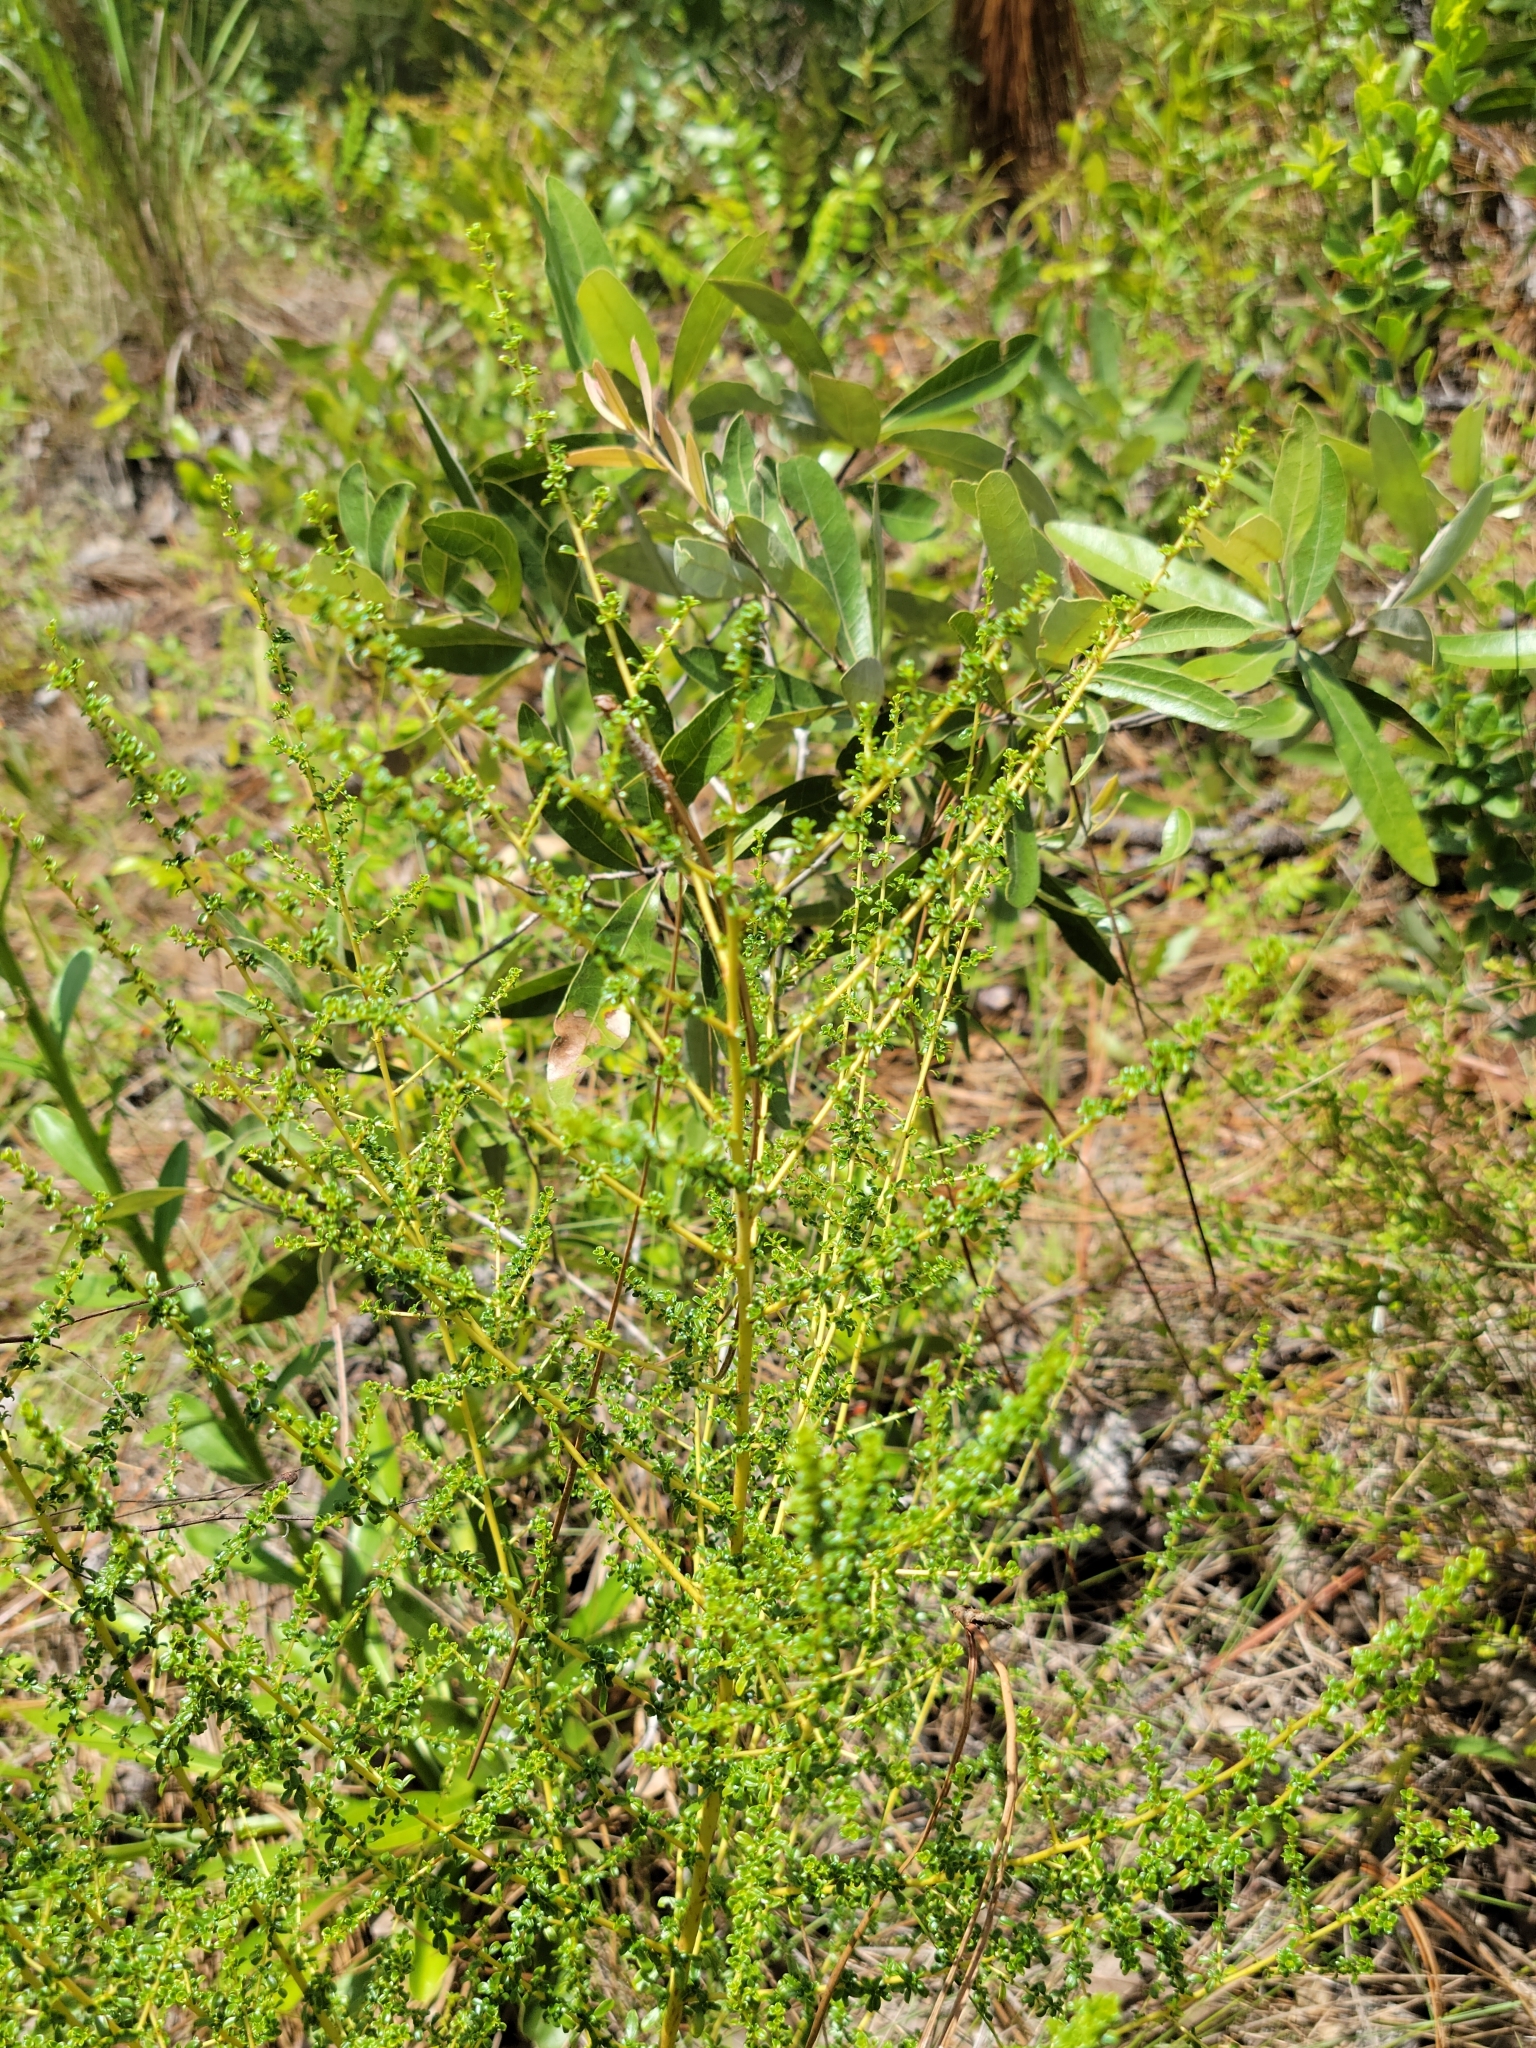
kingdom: Plantae
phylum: Tracheophyta
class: Magnoliopsida
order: Rosales
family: Rhamnaceae
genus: Ceanothus
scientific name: Ceanothus microphyllus
